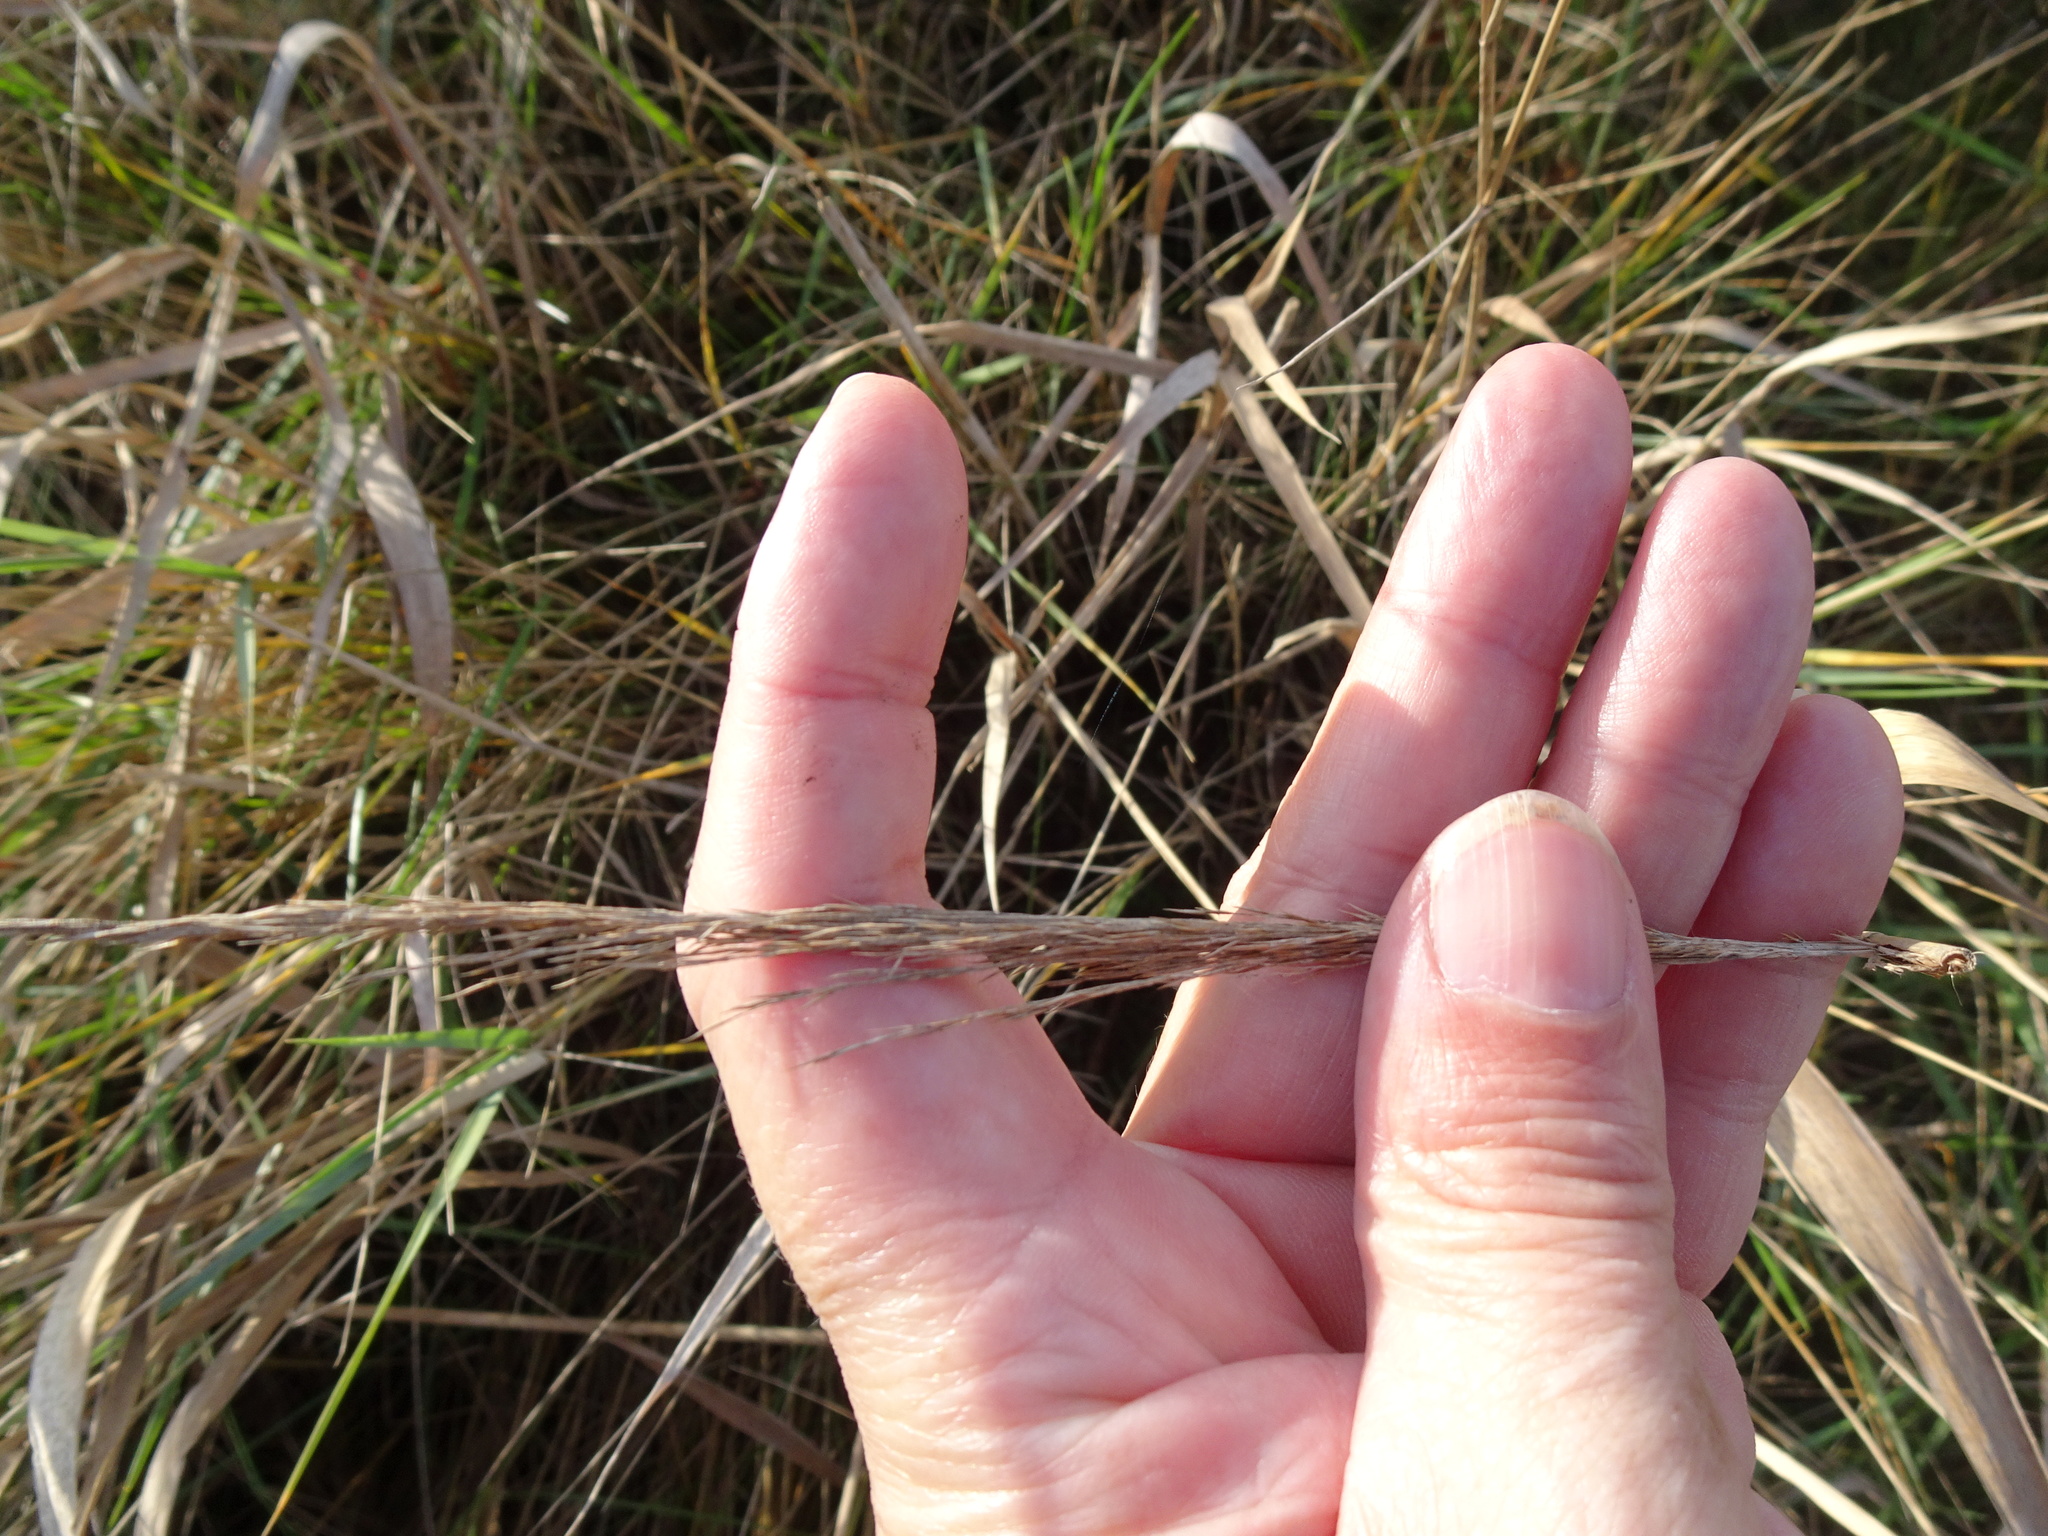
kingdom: Plantae
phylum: Tracheophyta
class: Liliopsida
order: Poales
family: Poaceae
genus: Phragmites
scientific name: Phragmites australis
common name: Common reed
